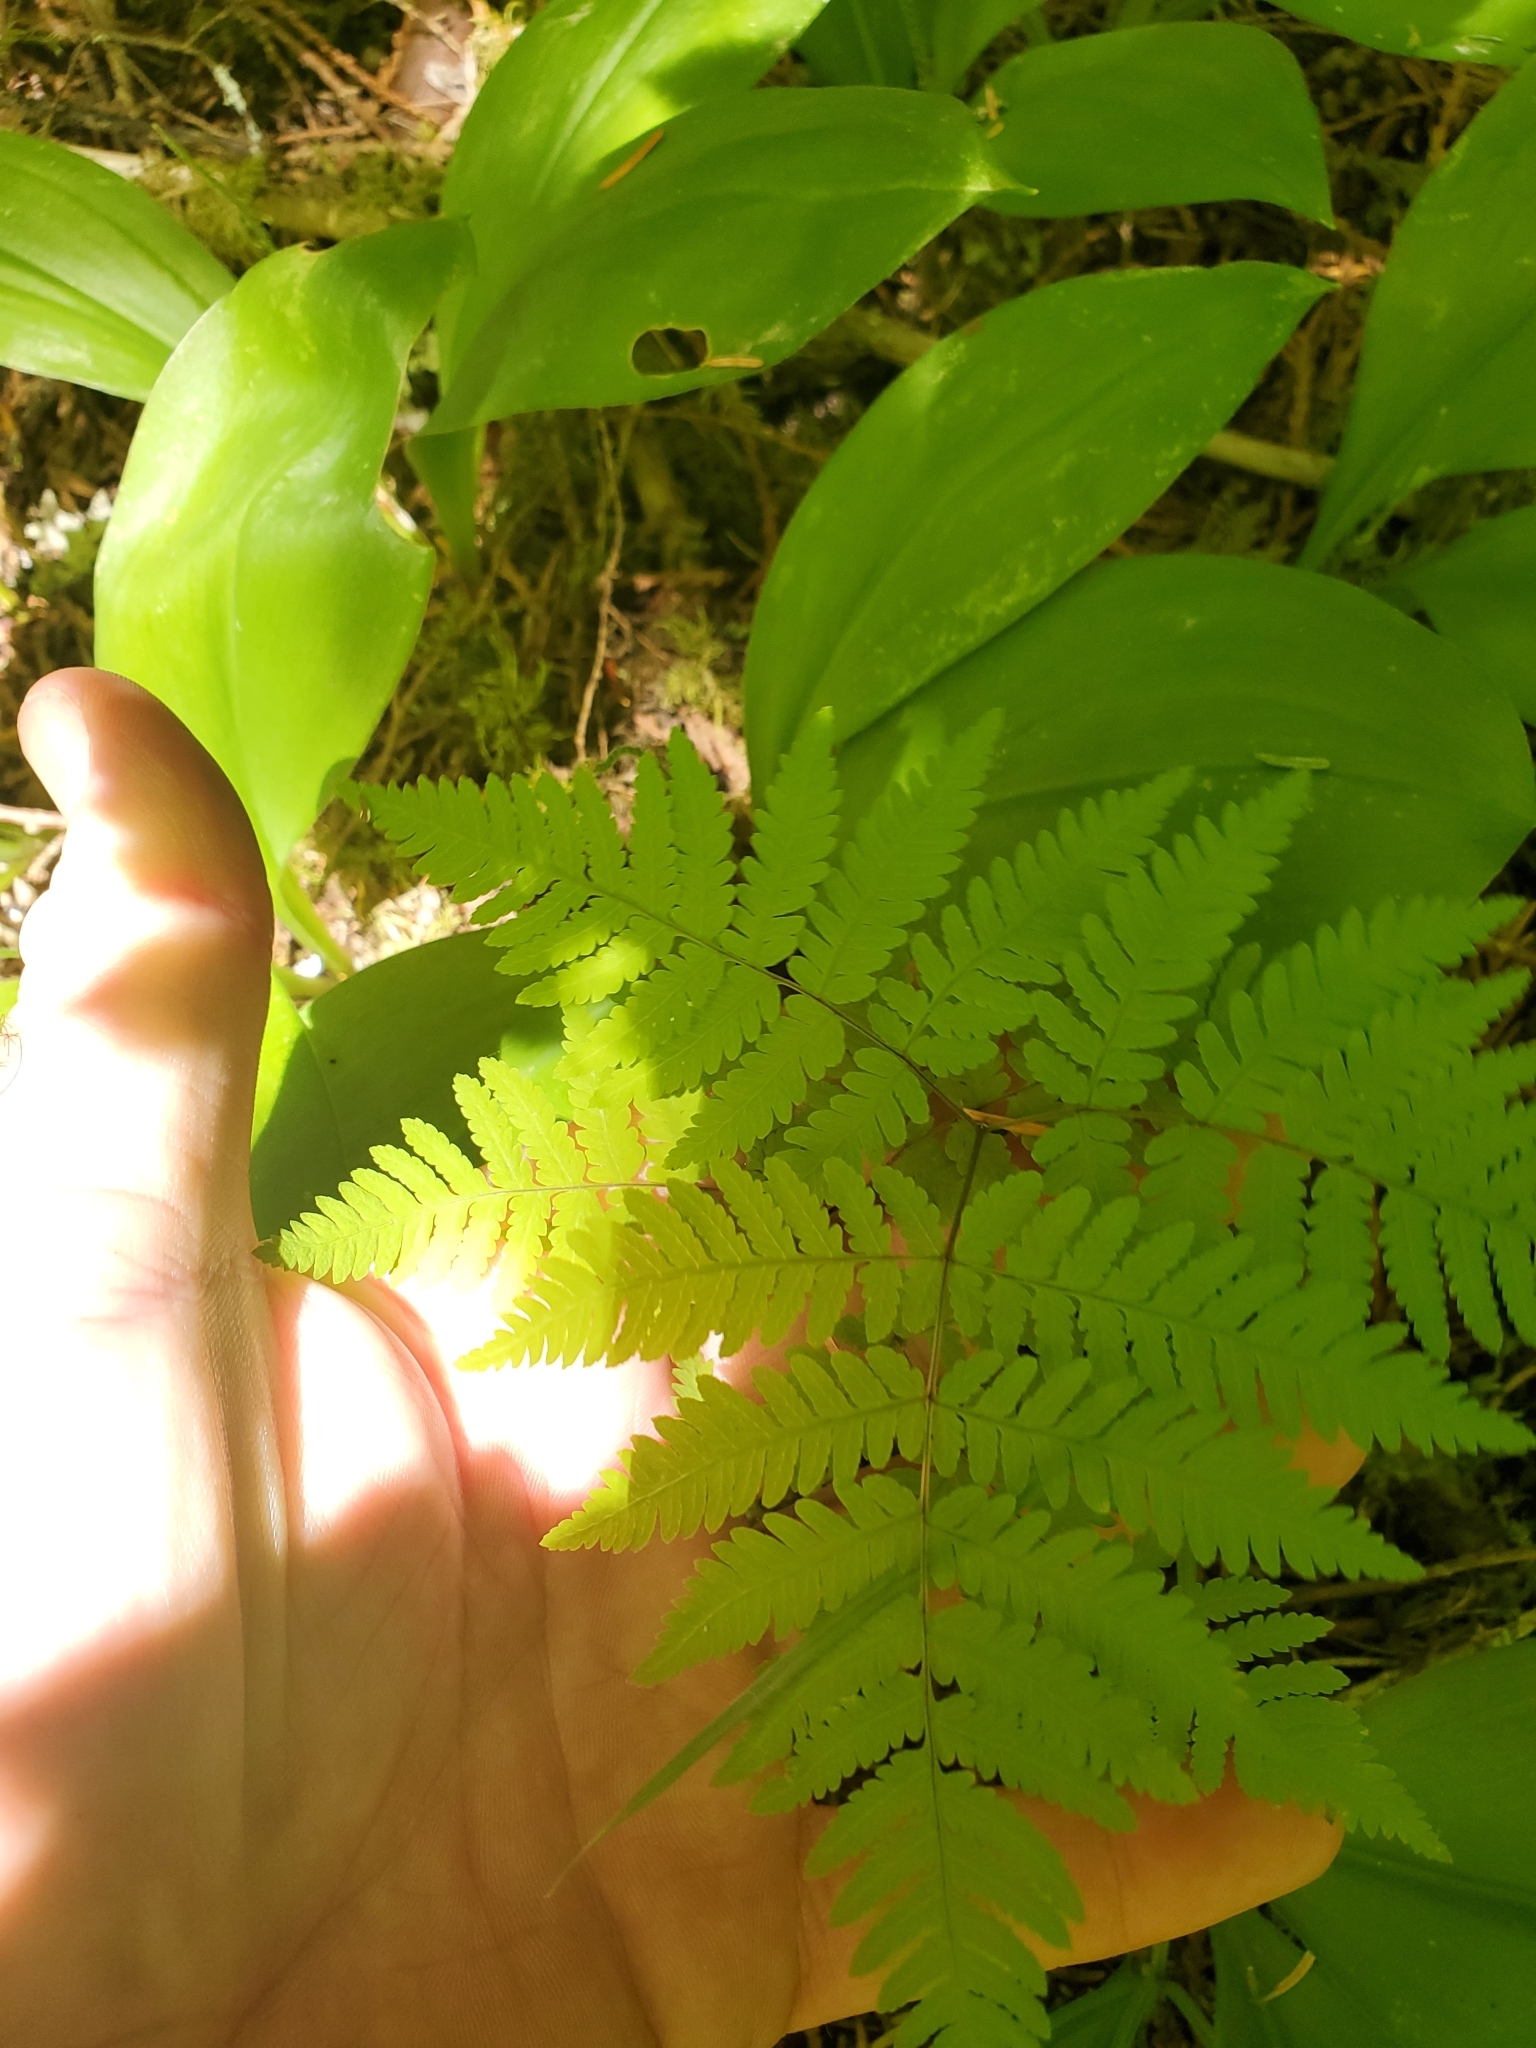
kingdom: Plantae
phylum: Tracheophyta
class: Polypodiopsida
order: Polypodiales
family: Cystopteridaceae
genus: Gymnocarpium
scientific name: Gymnocarpium disjunctum
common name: Western oak fern
